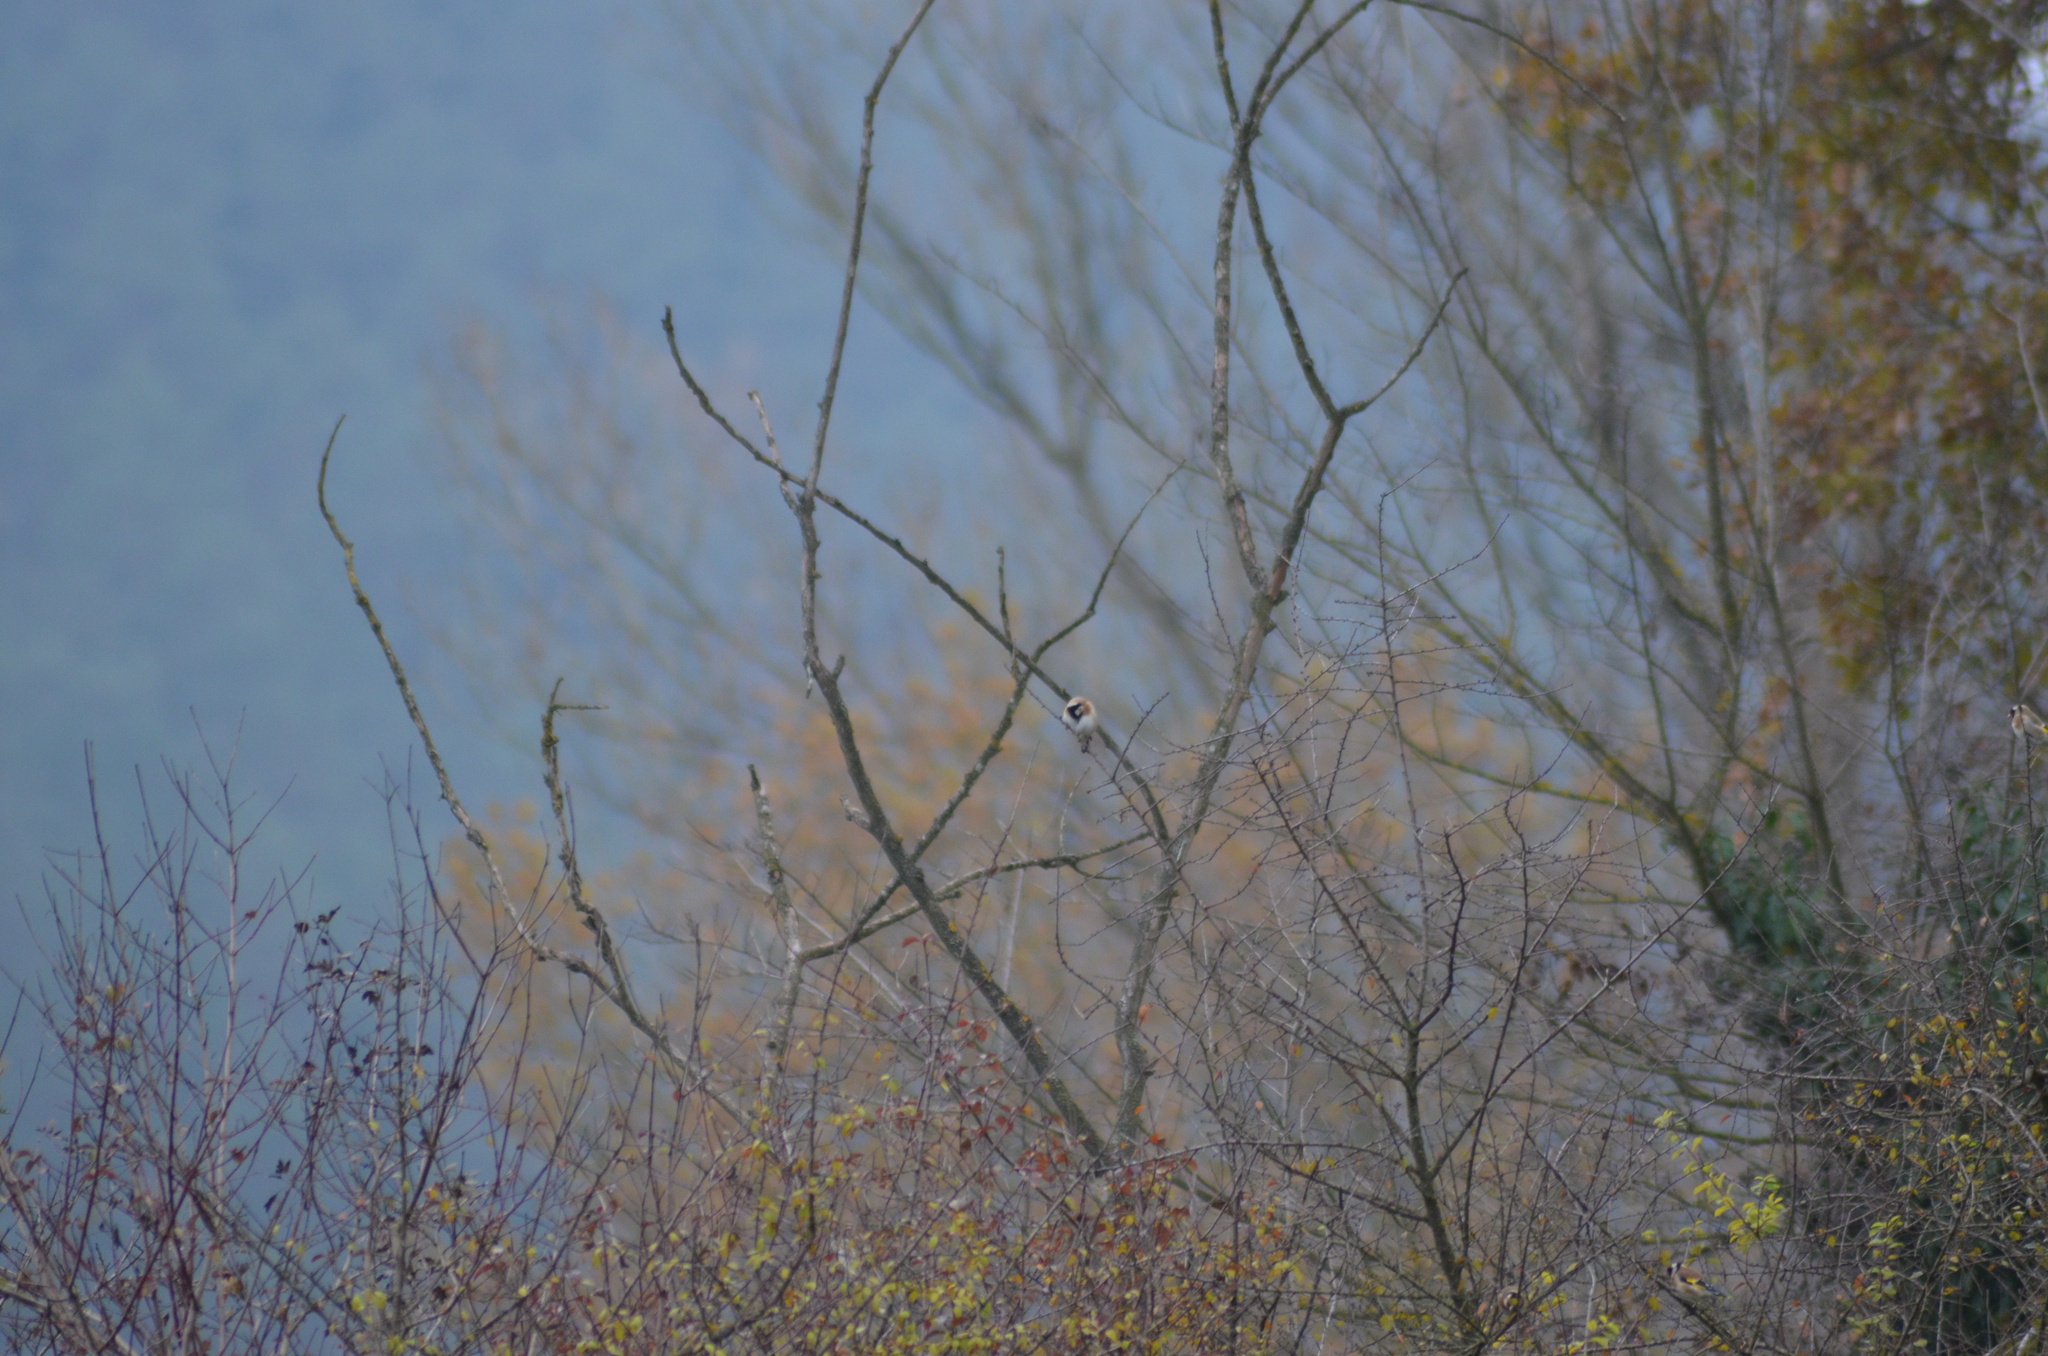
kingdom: Animalia
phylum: Chordata
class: Aves
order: Passeriformes
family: Fringillidae
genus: Carduelis
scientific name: Carduelis carduelis
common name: European goldfinch
